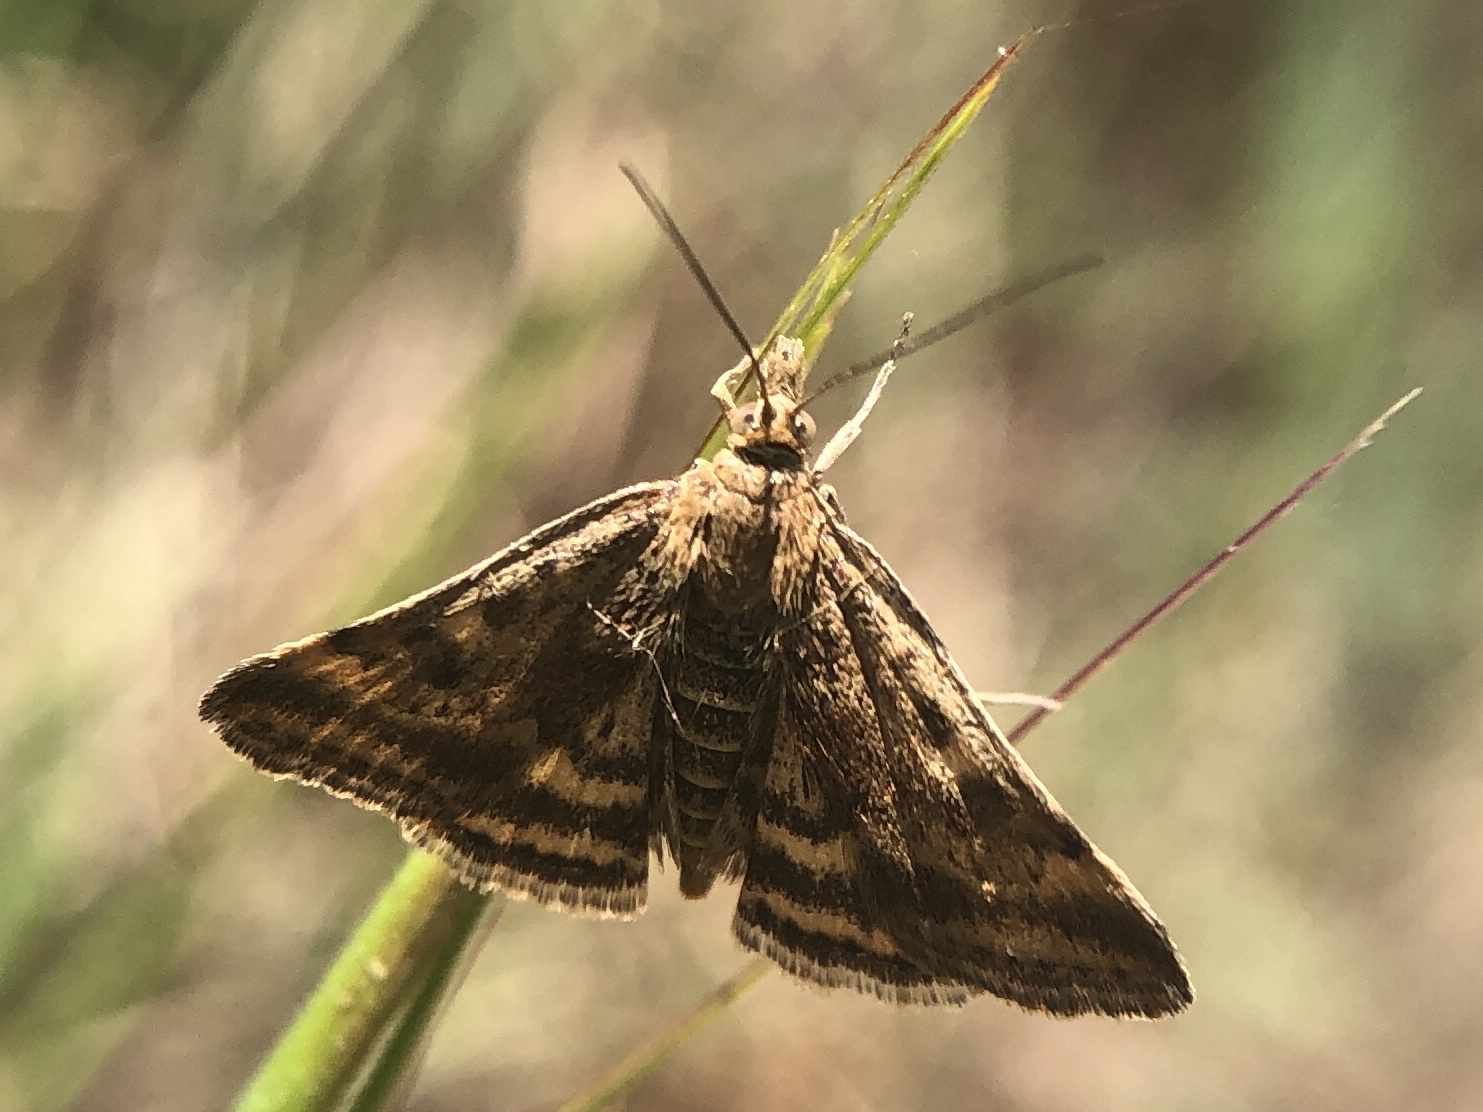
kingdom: Animalia
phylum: Arthropoda
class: Insecta
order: Lepidoptera
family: Crambidae
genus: Pyrausta
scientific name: Pyrausta despicata
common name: Straw-barred pearl
